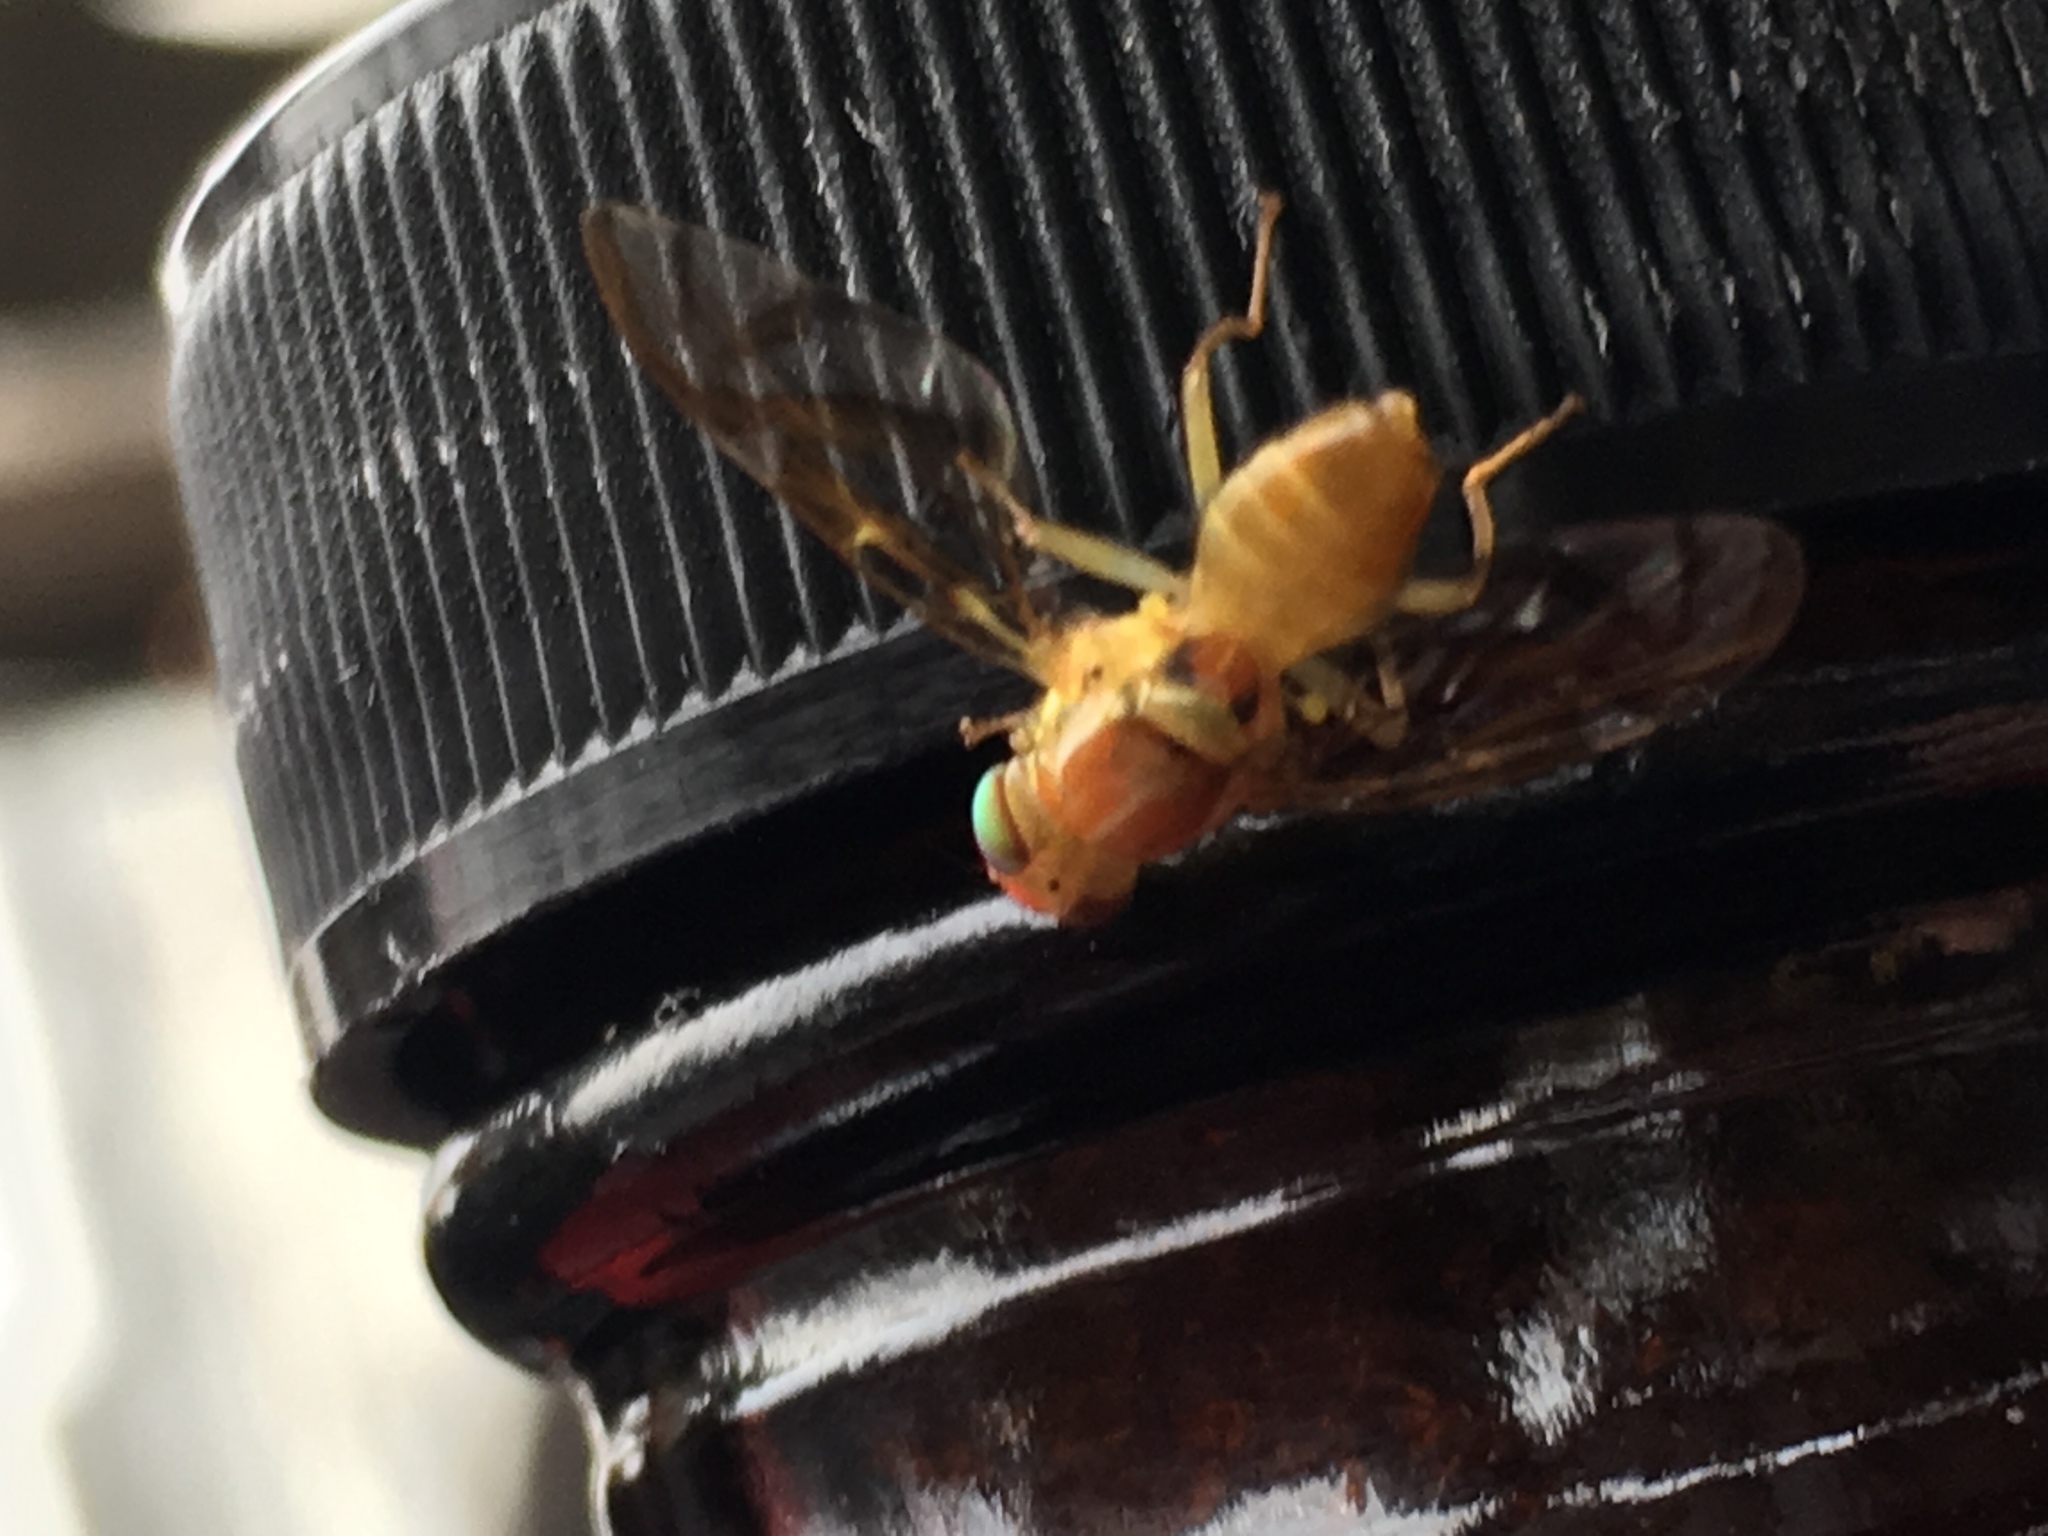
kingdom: Animalia
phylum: Arthropoda
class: Insecta
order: Diptera
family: Tephritidae
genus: Anastrepha
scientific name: Anastrepha ludens
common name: Mexican fruit fly
